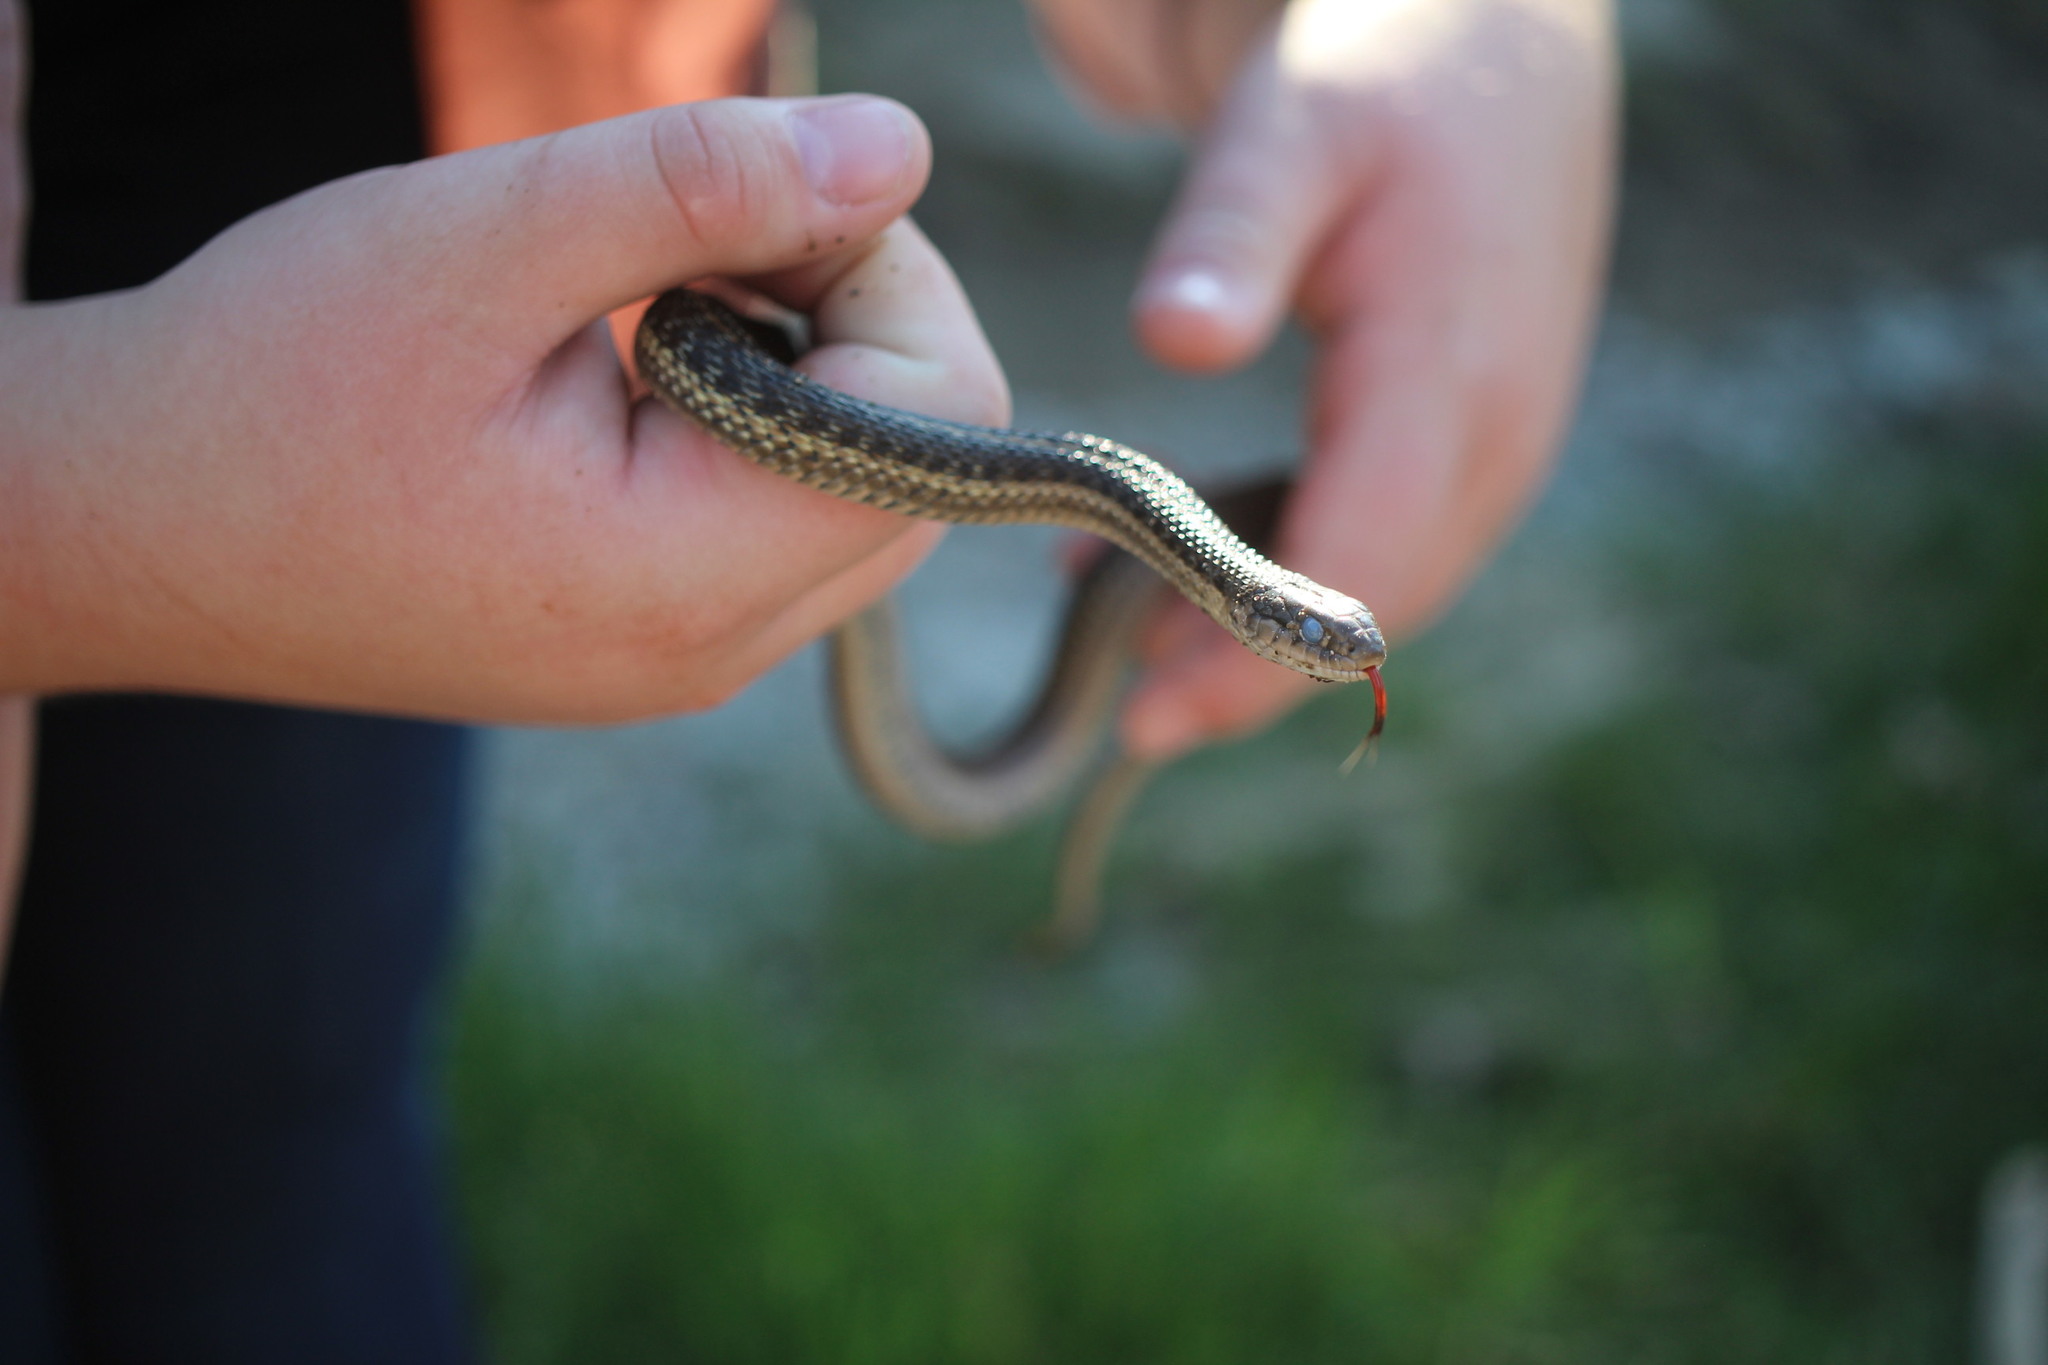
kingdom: Animalia
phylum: Chordata
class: Squamata
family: Colubridae
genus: Thamnophis
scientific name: Thamnophis elegans
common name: Western terrestrial garter snake
